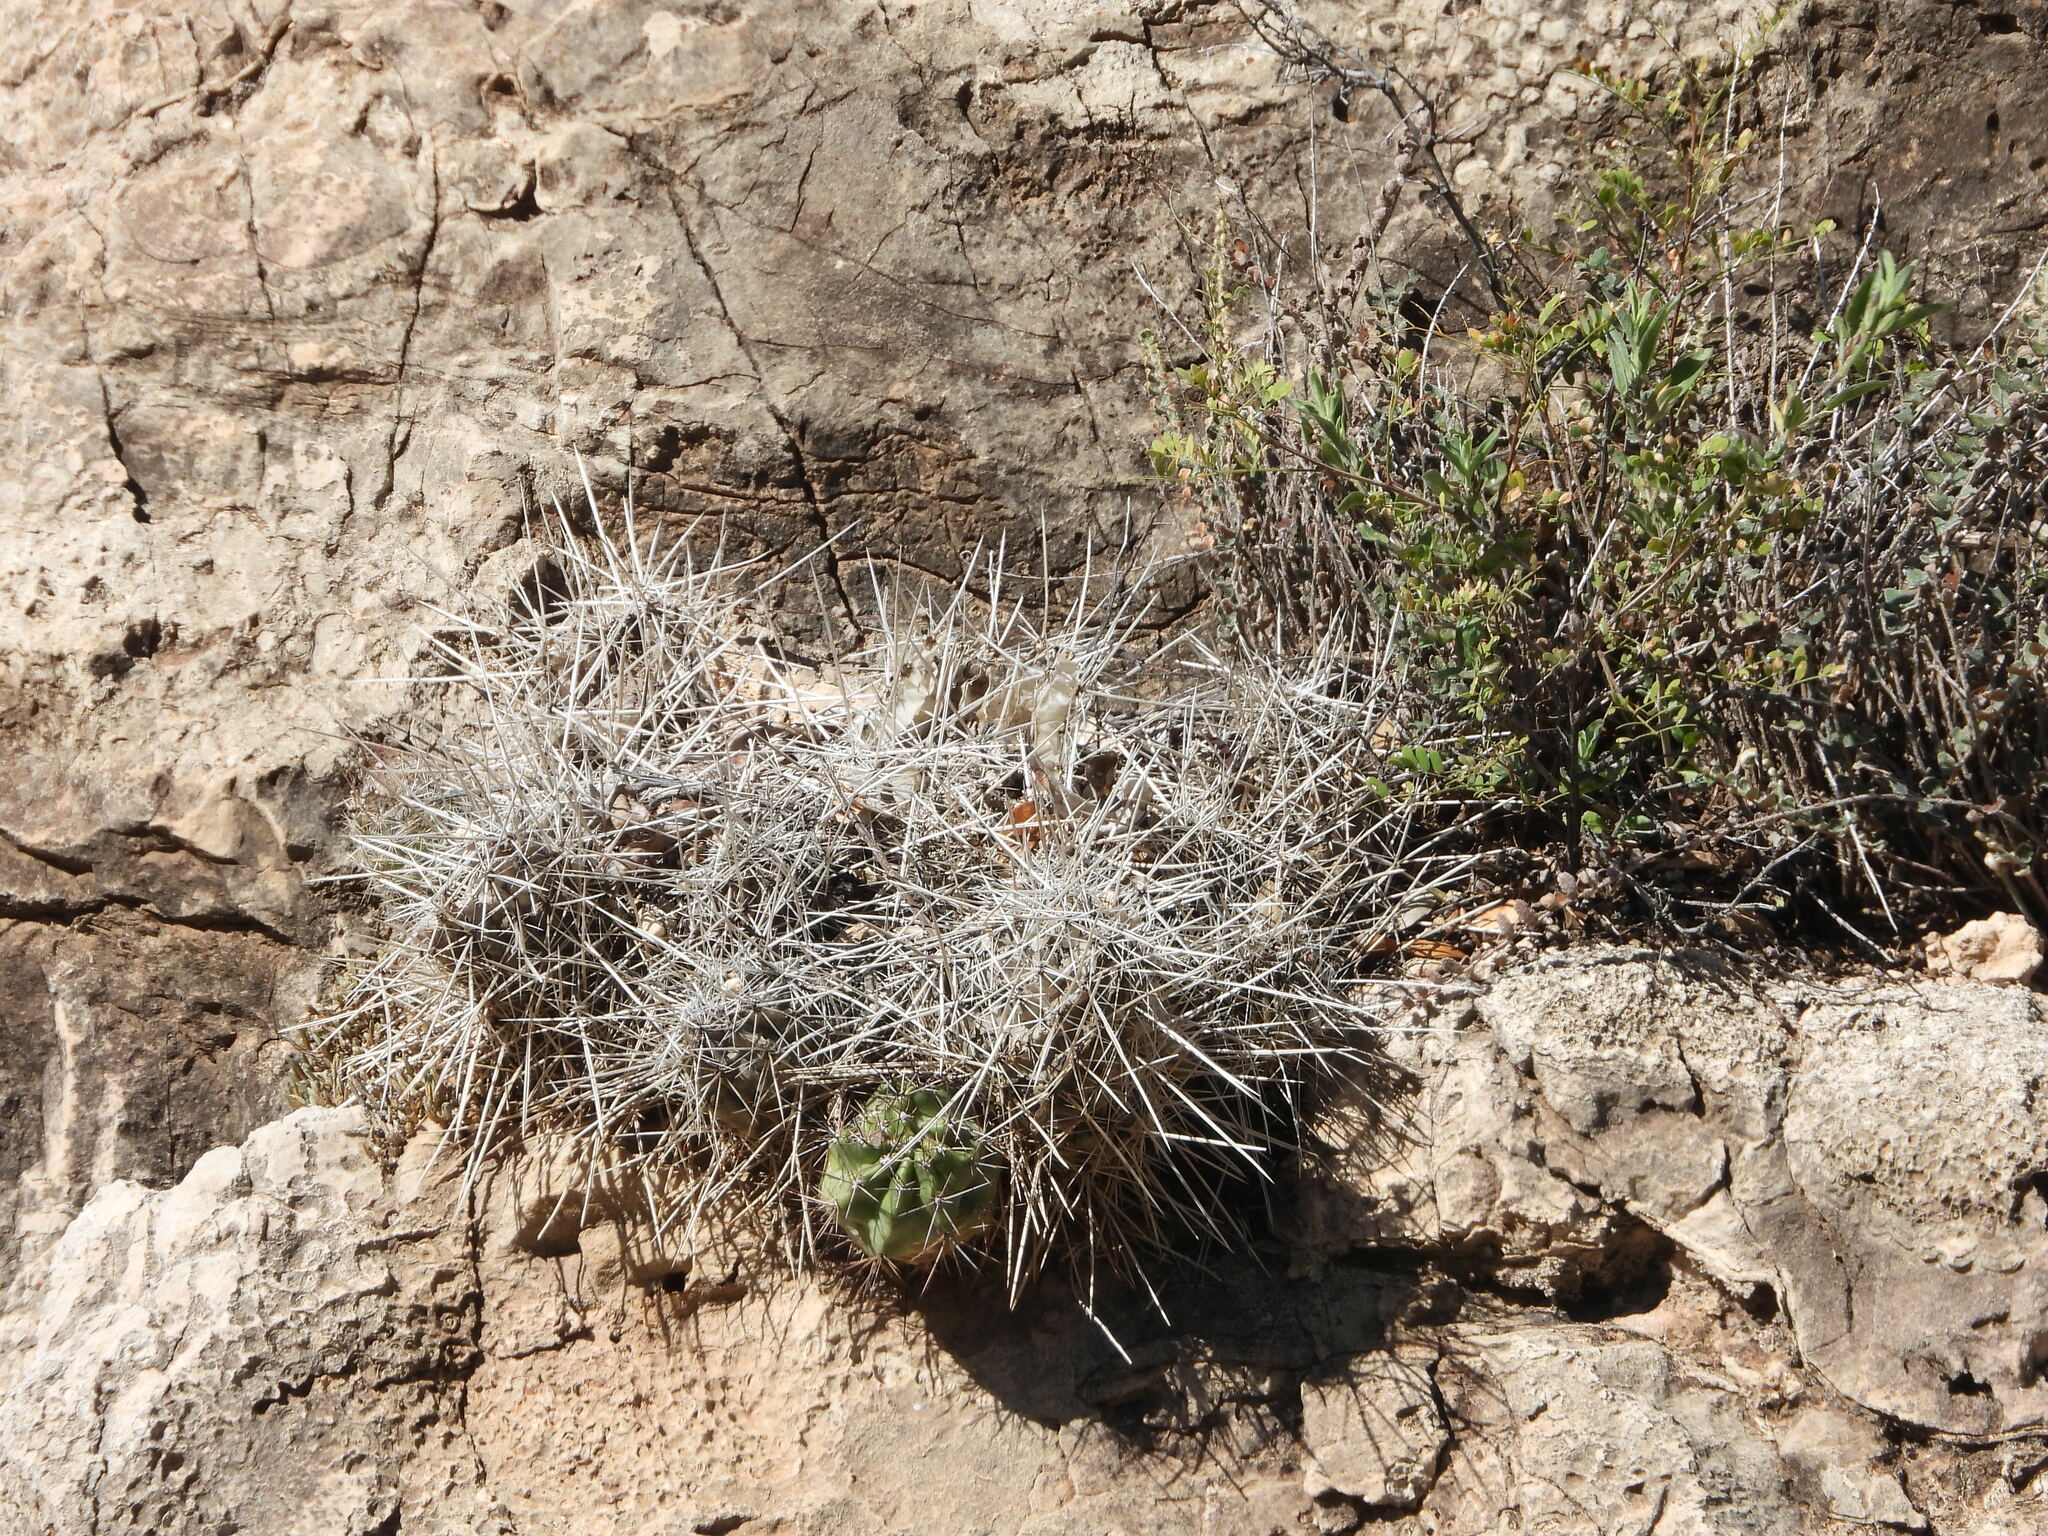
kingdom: Plantae
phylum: Tracheophyta
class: Magnoliopsida
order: Caryophyllales
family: Cactaceae
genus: Echinocereus
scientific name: Echinocereus coccineus
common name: Scarlet hedgehog cactus
